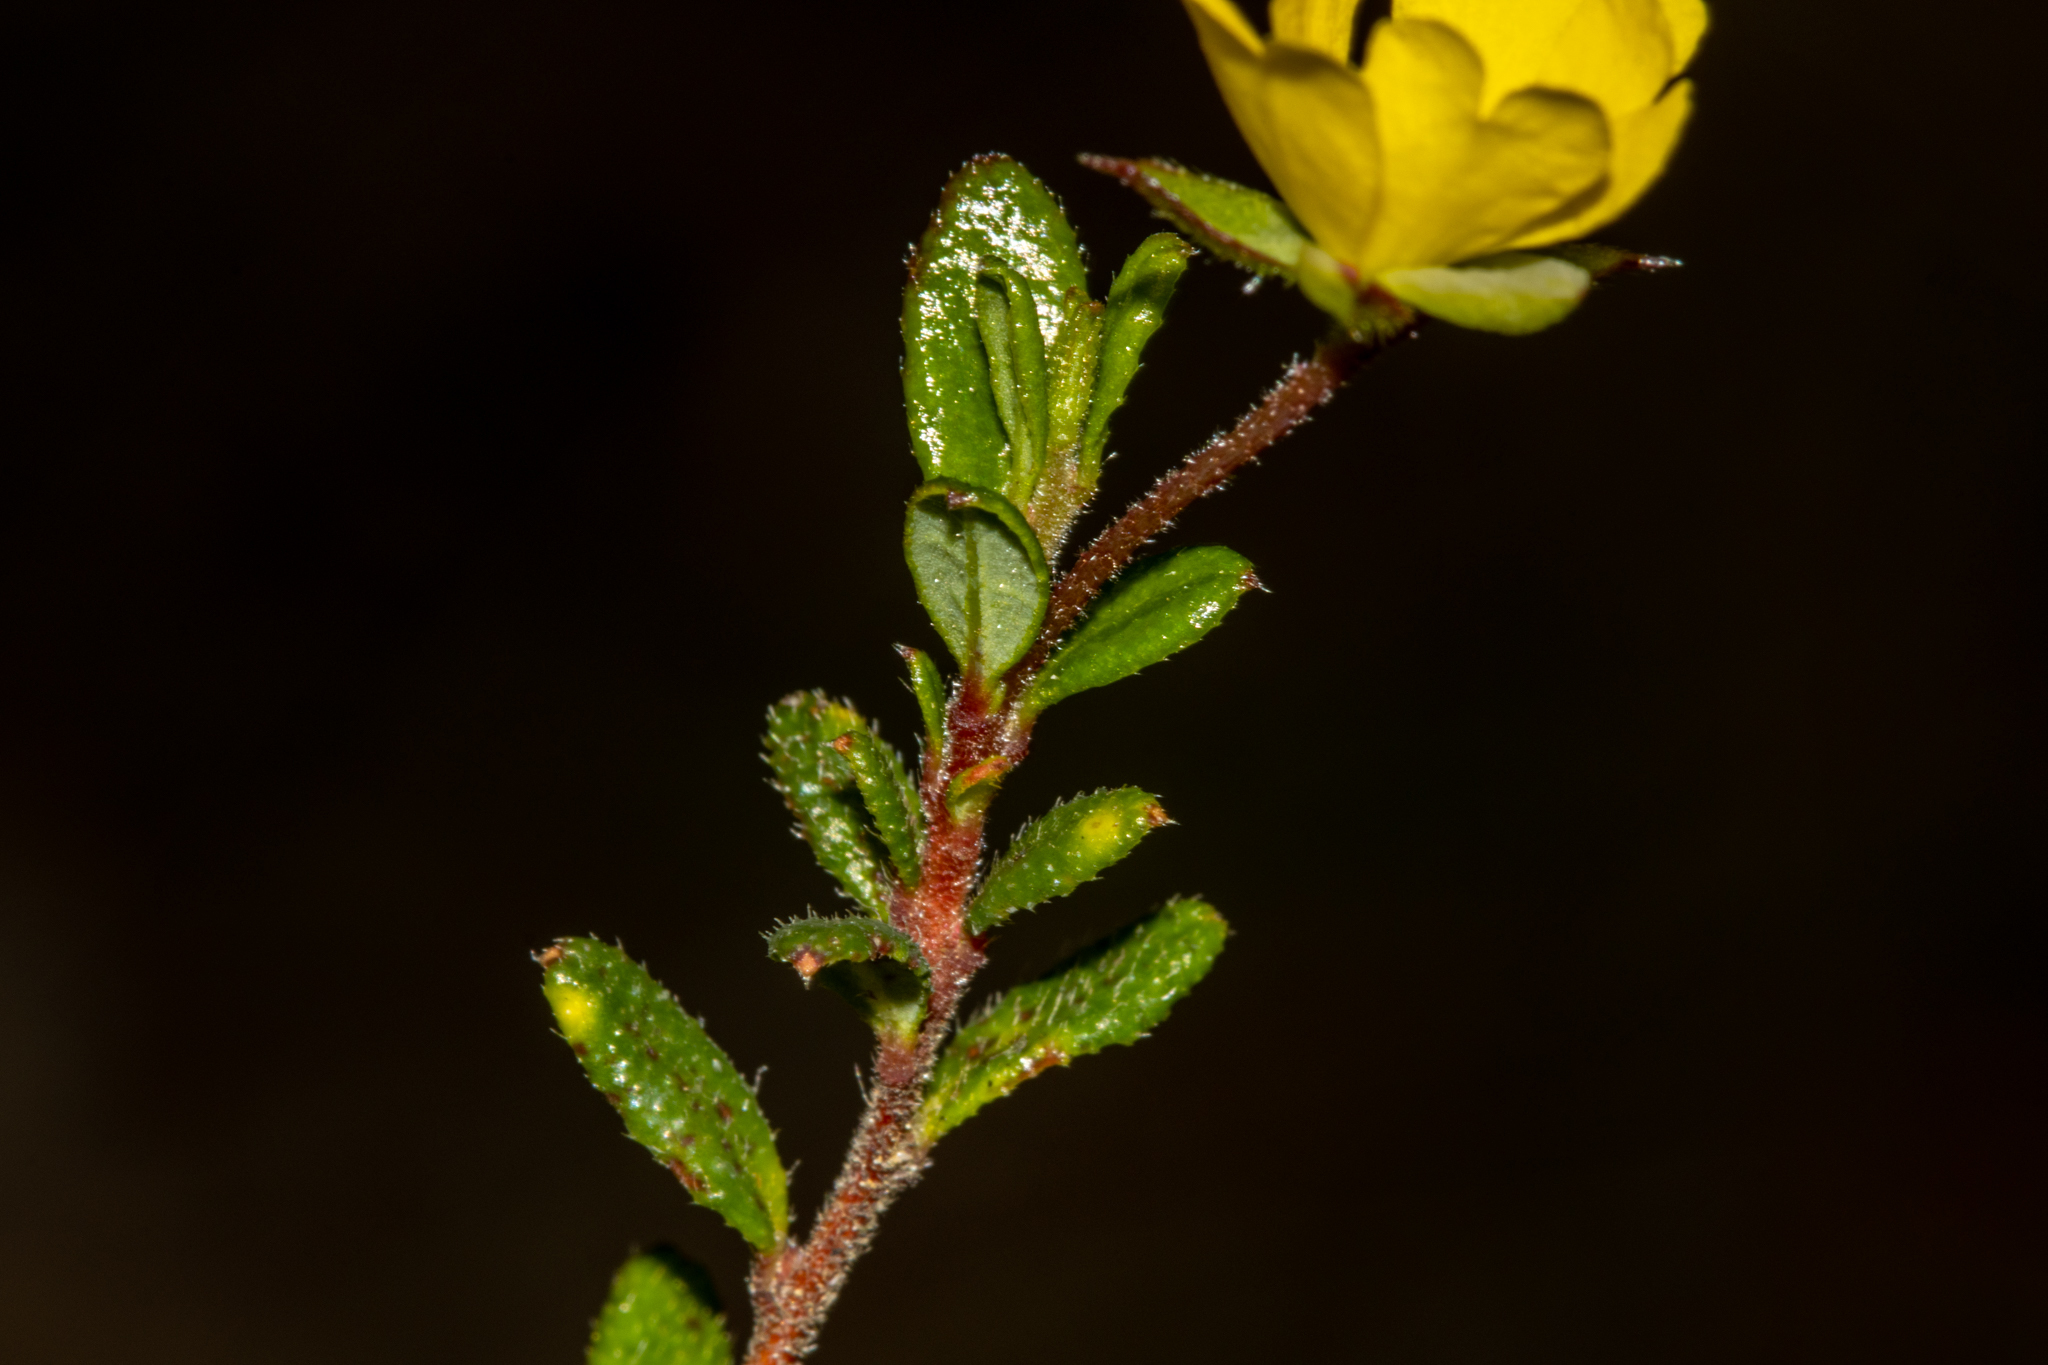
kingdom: Plantae
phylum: Tracheophyta
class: Magnoliopsida
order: Dilleniales
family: Dilleniaceae
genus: Hibbertia
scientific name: Hibbertia empetrifolia
